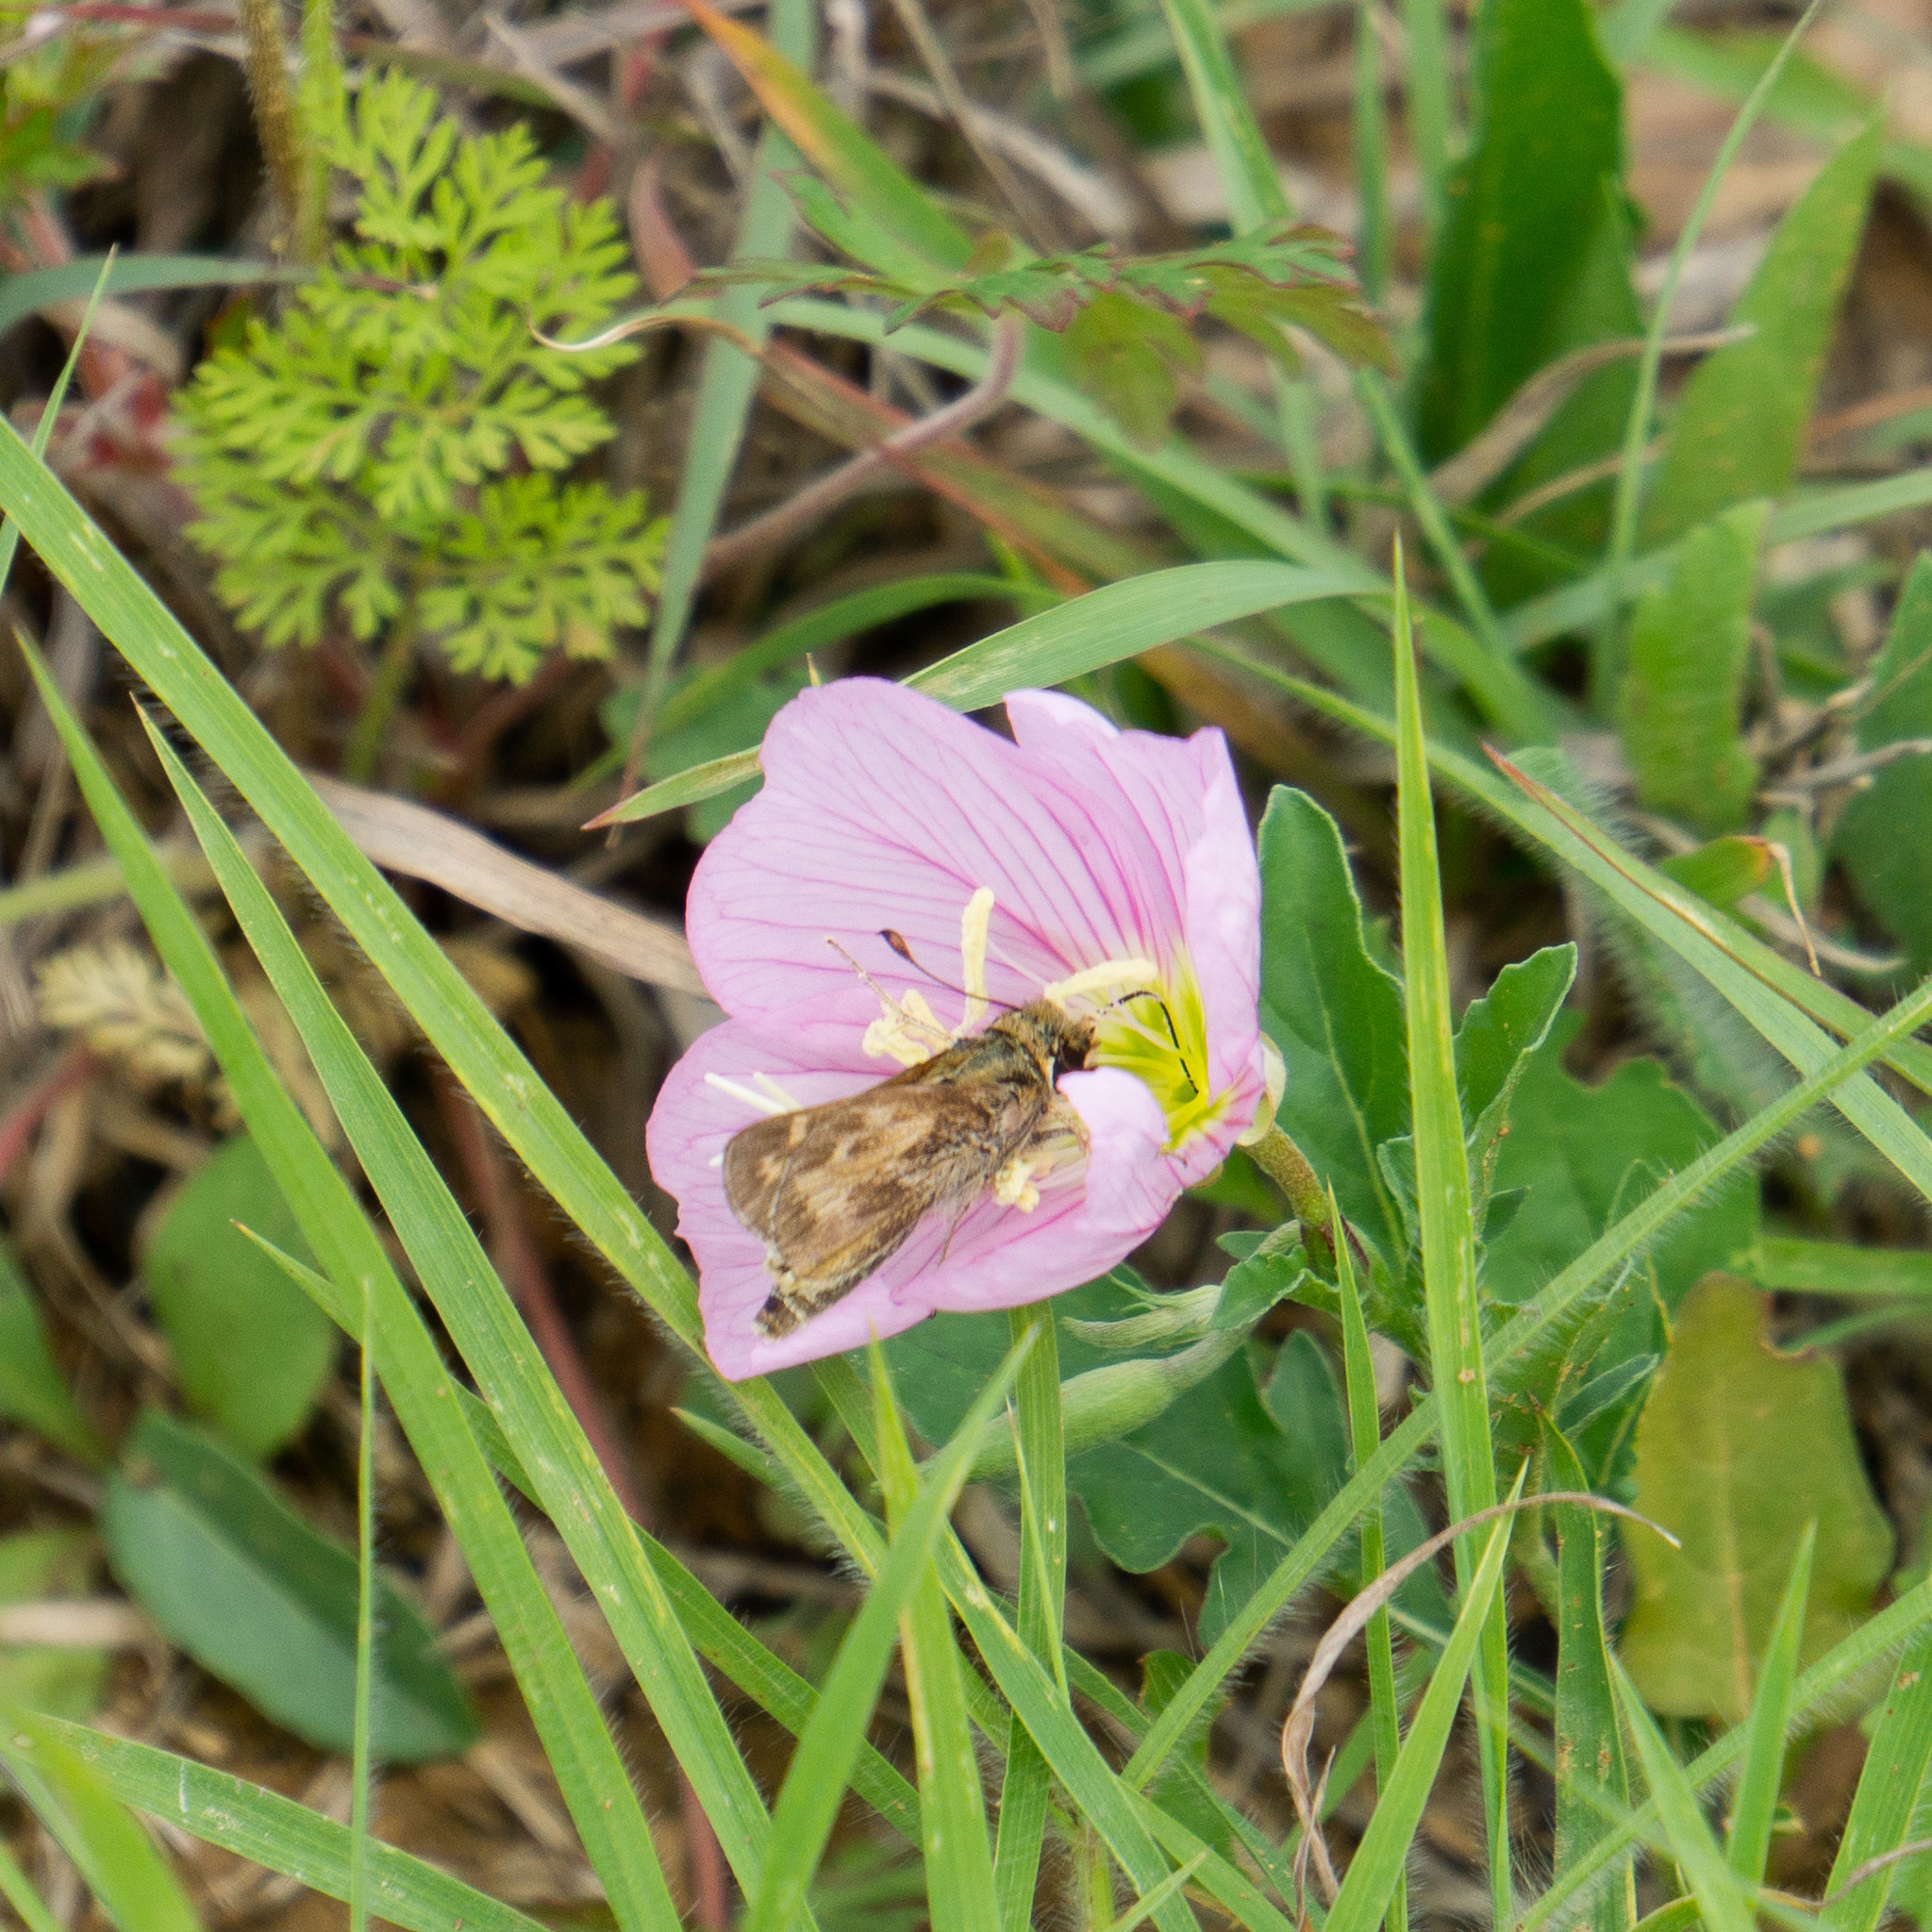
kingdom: Animalia
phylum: Arthropoda
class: Insecta
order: Lepidoptera
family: Hesperiidae
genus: Atalopedes
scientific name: Atalopedes
